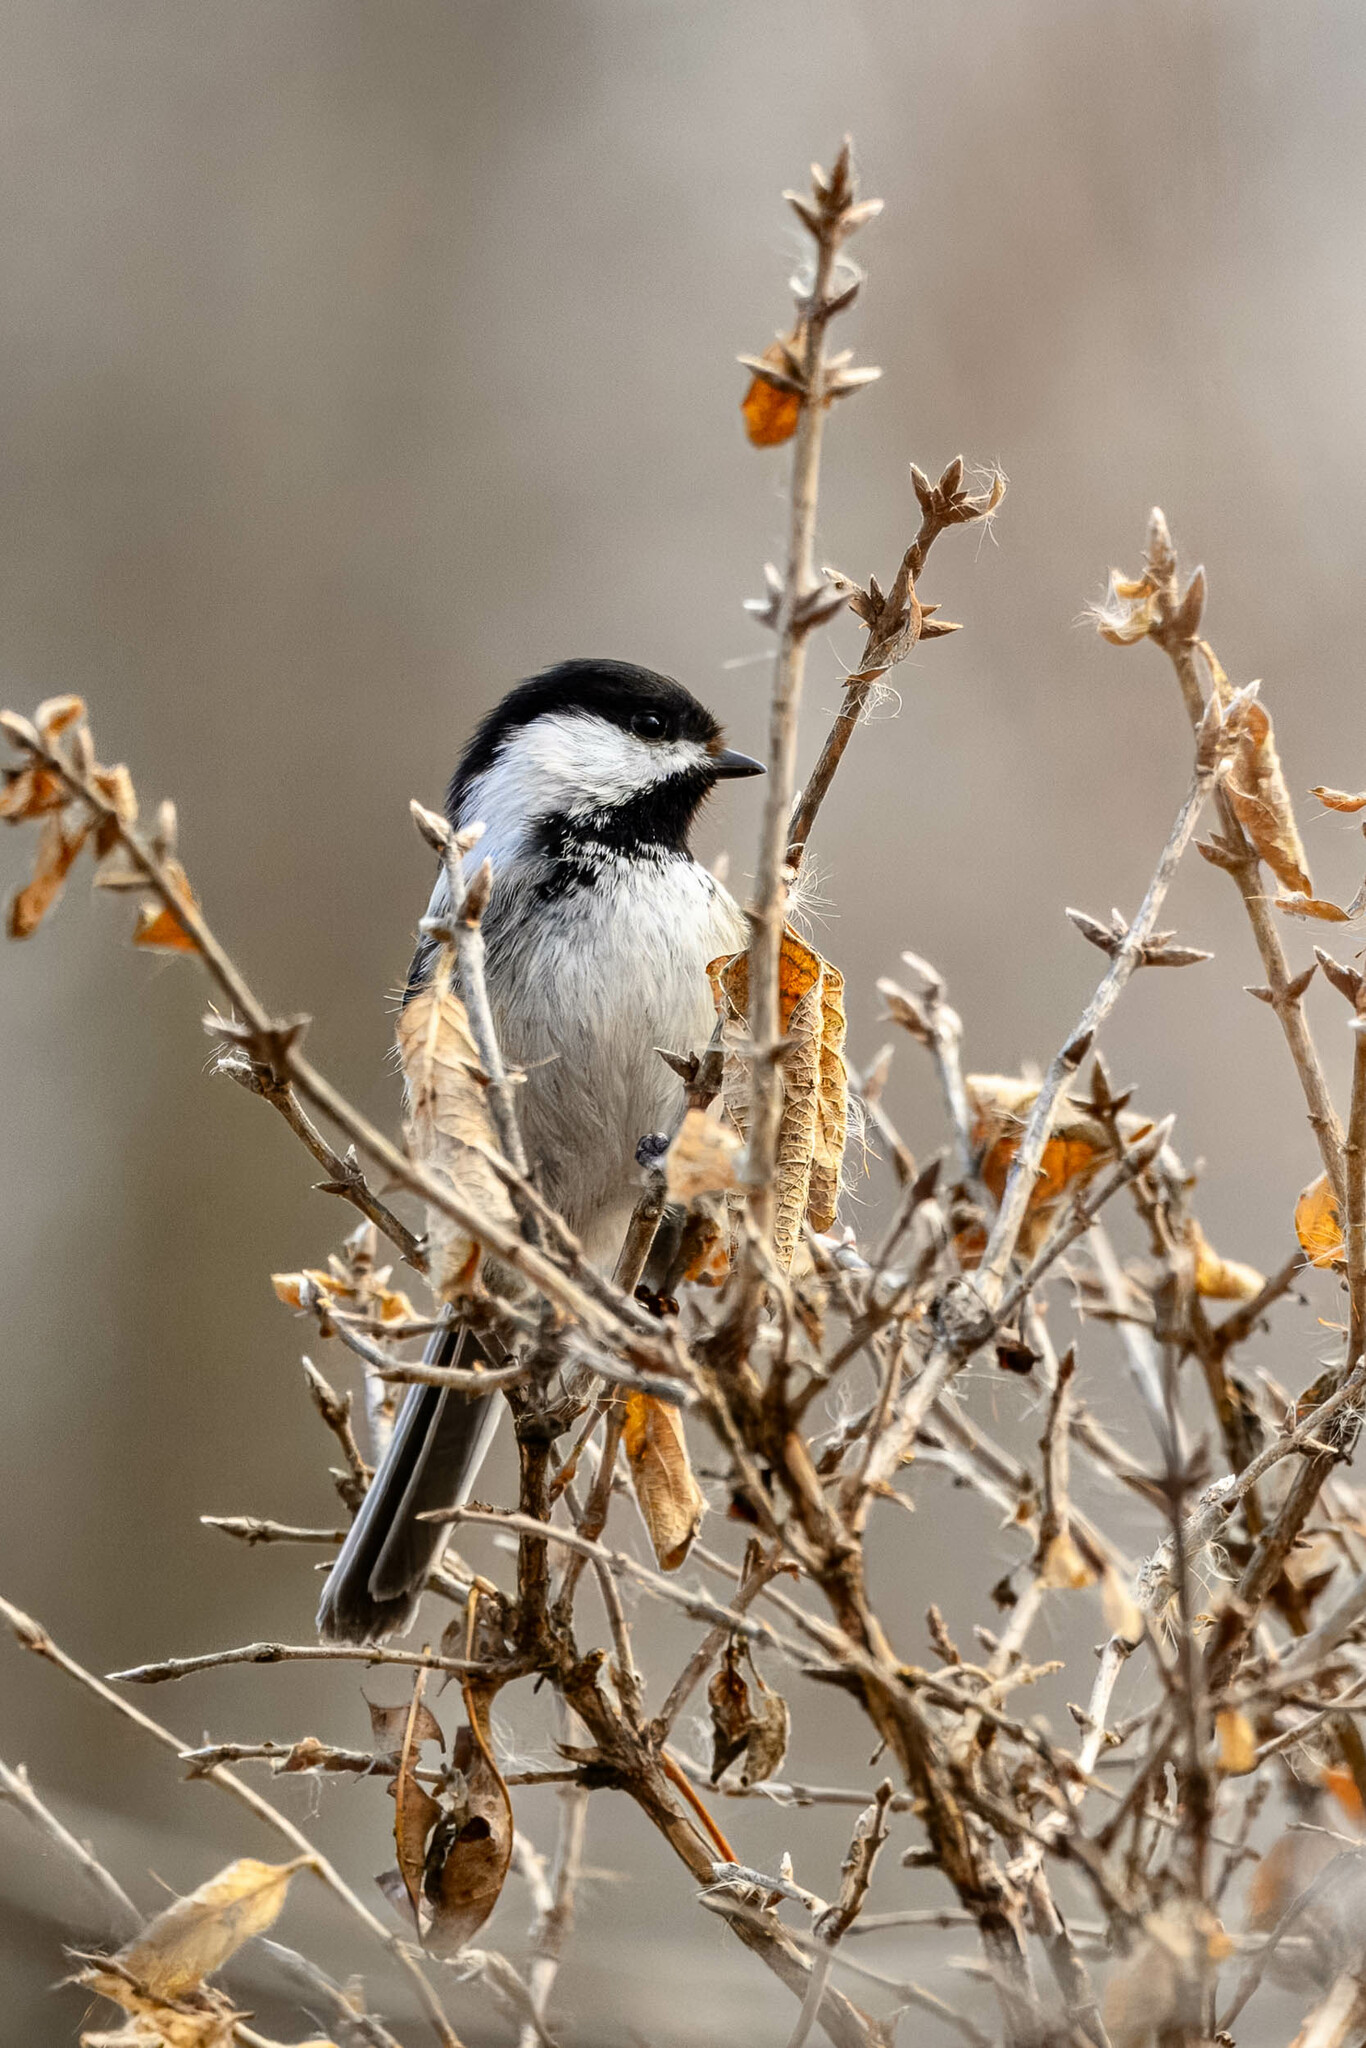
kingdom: Animalia
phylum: Chordata
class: Aves
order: Passeriformes
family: Paridae
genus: Poecile
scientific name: Poecile atricapillus
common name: Black-capped chickadee
